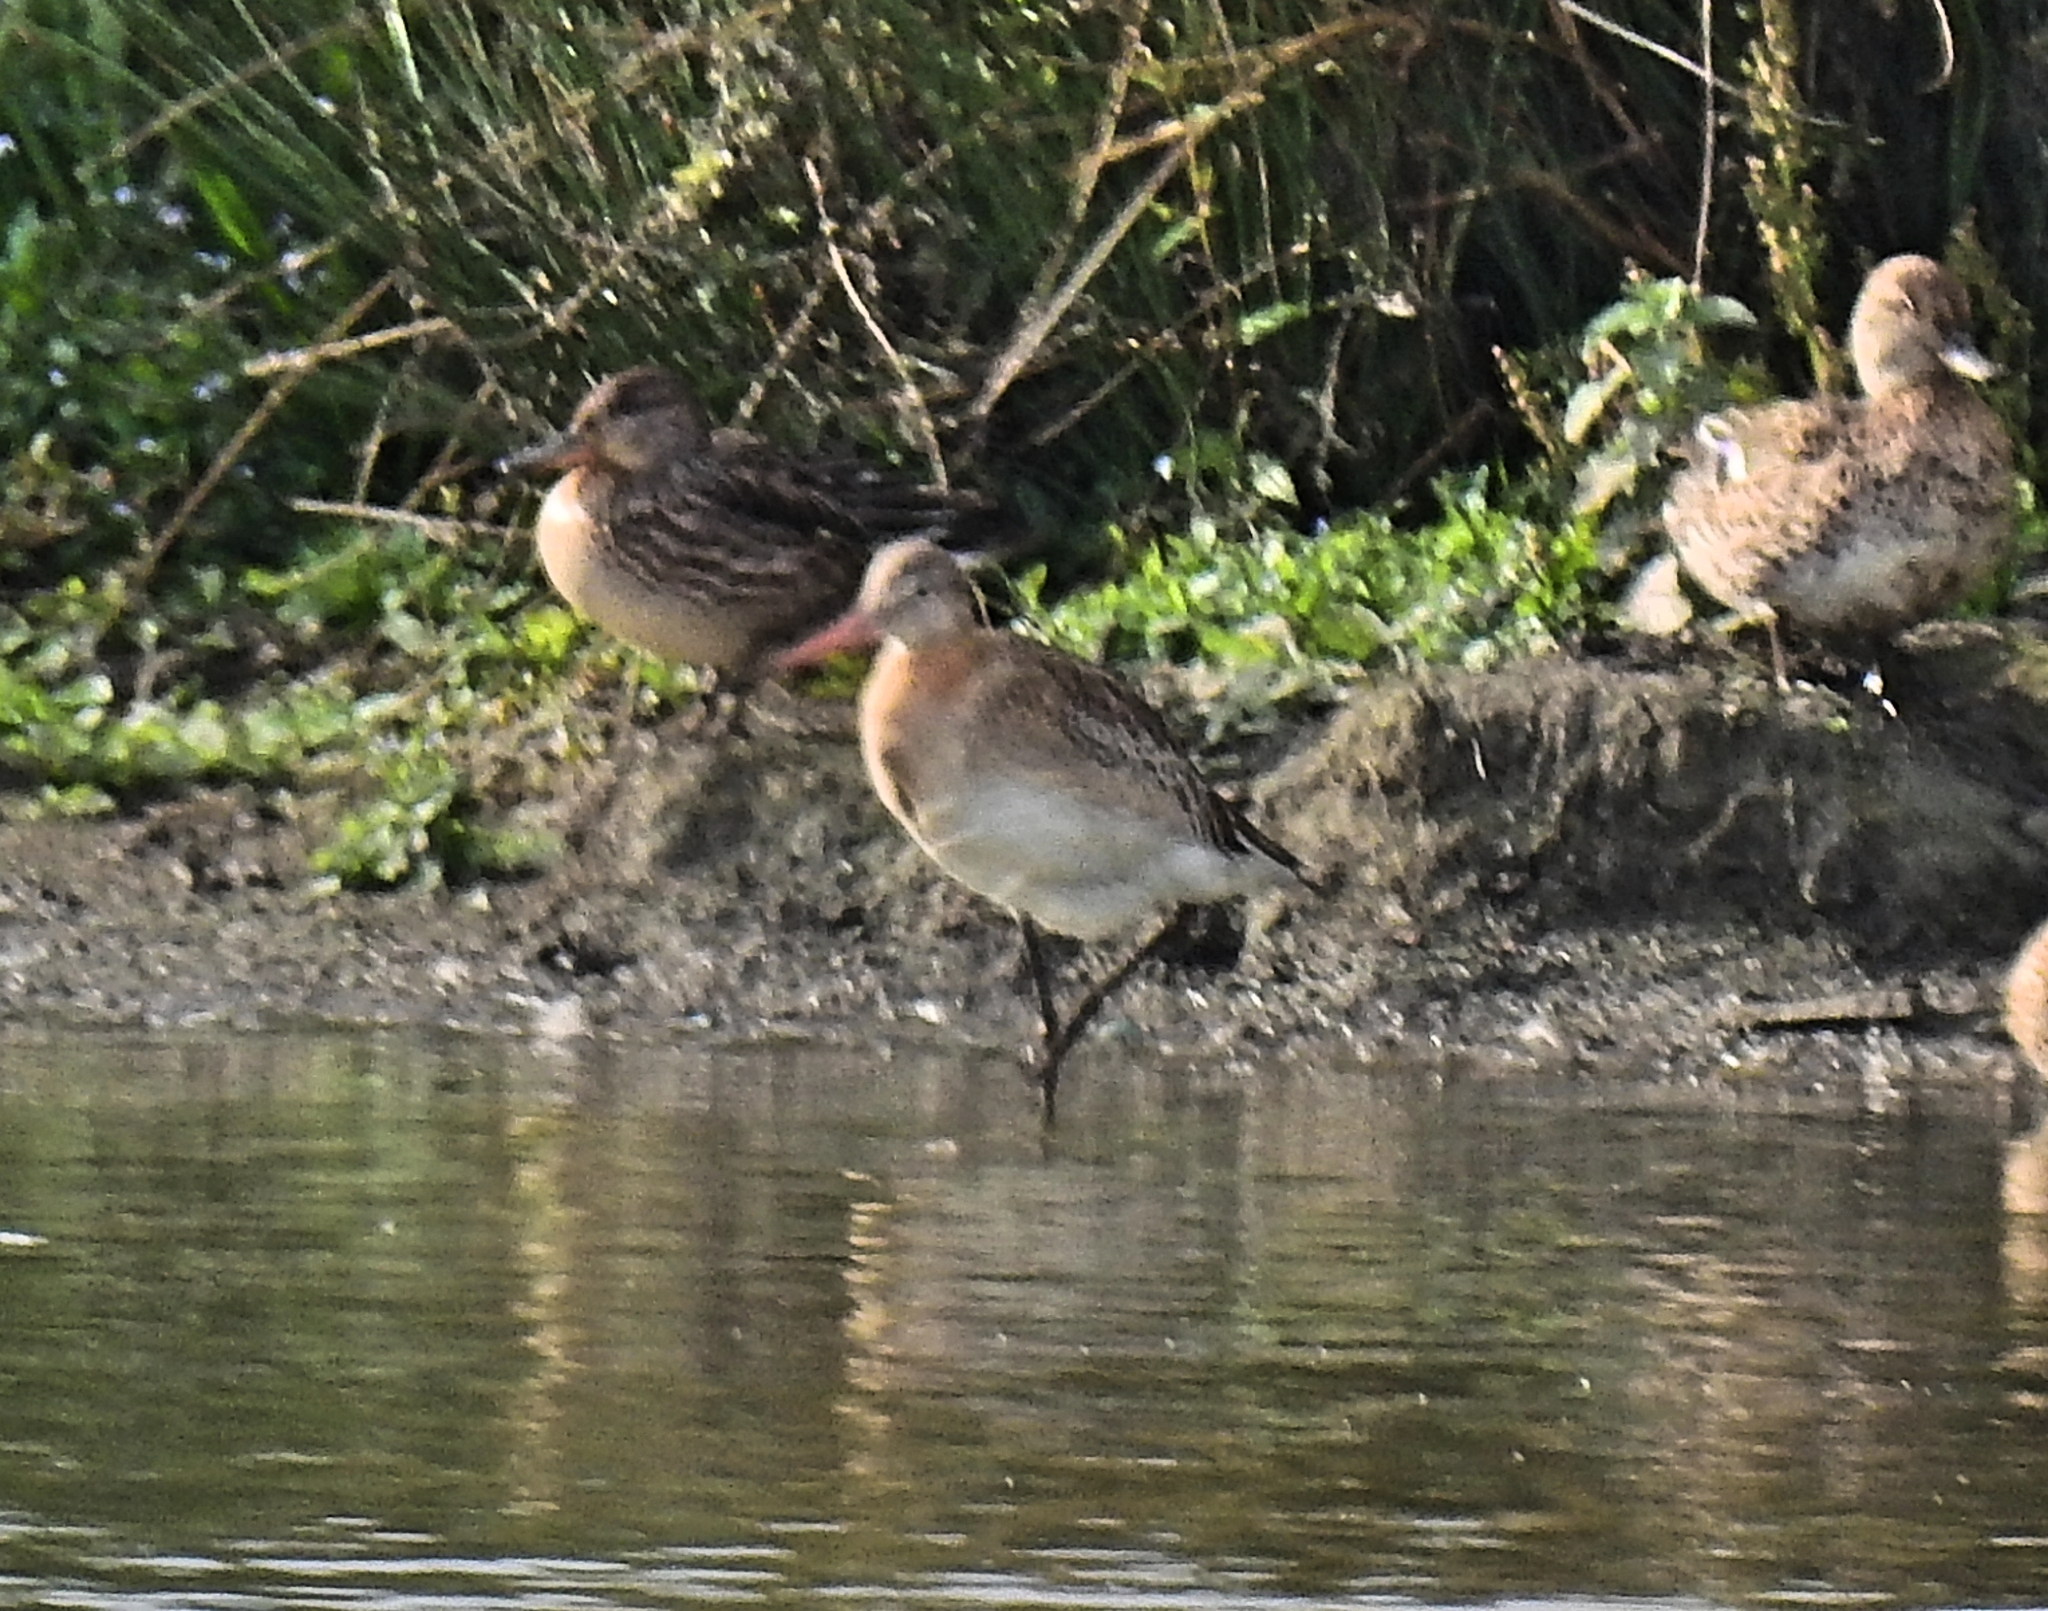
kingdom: Animalia
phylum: Chordata
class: Aves
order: Charadriiformes
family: Scolopacidae
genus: Limosa
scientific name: Limosa limosa
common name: Black-tailed godwit
